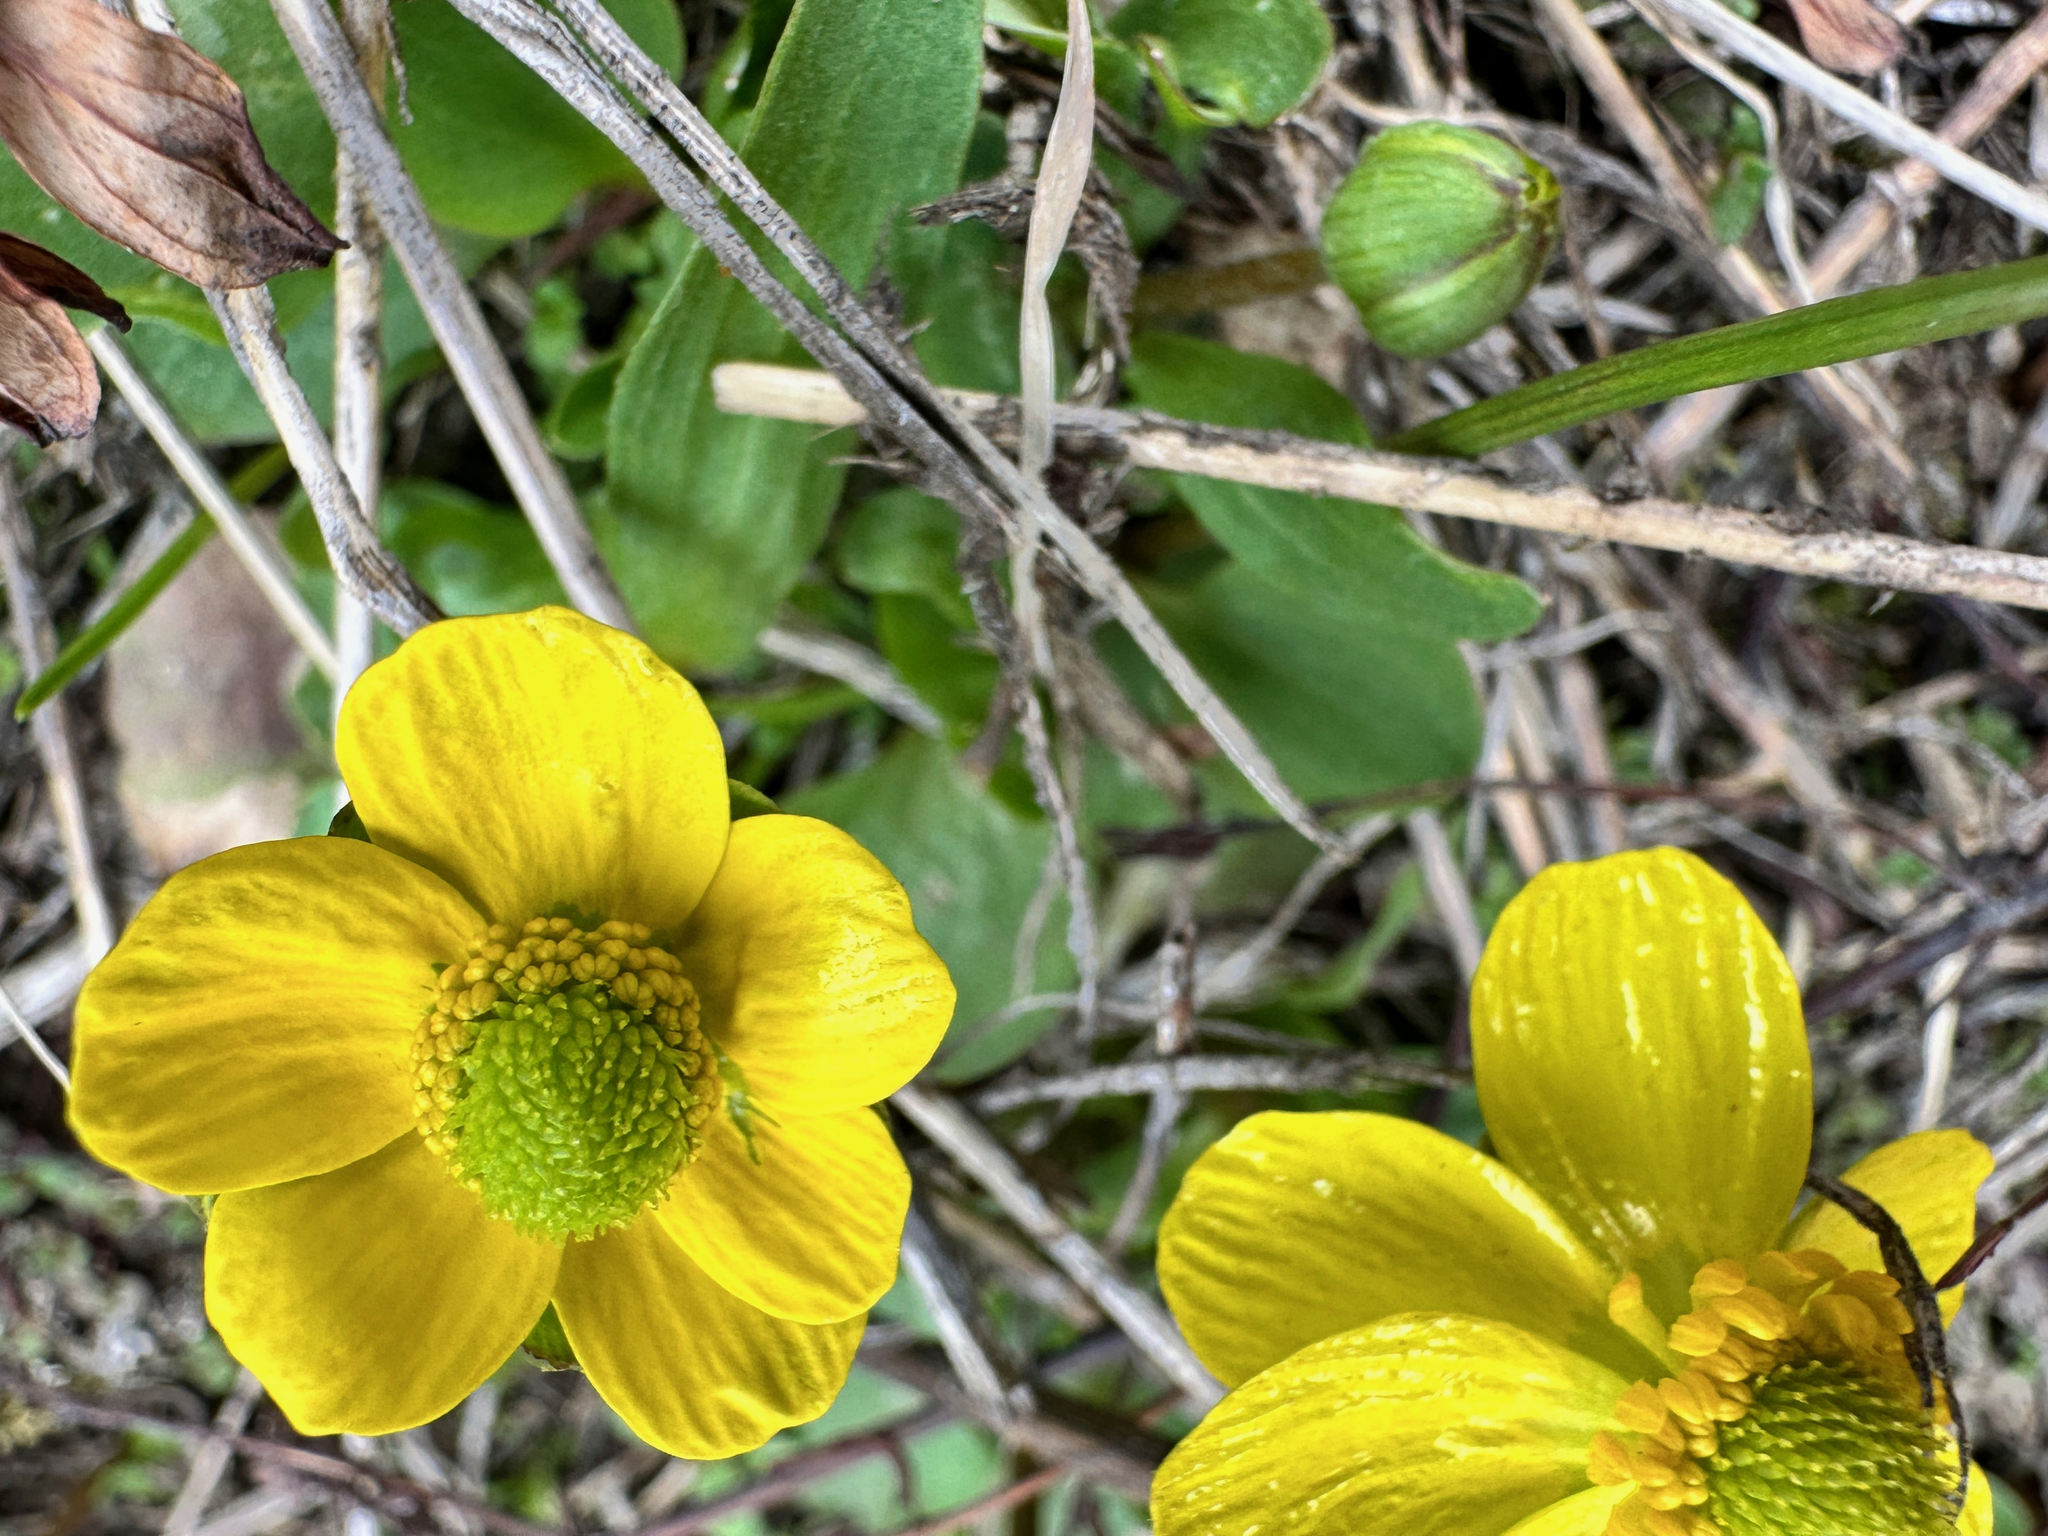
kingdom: Plantae
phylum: Tracheophyta
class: Magnoliopsida
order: Ranunculales
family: Ranunculaceae
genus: Ranunculus
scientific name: Ranunculus glaberrimus
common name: Sagebrush buttercup
